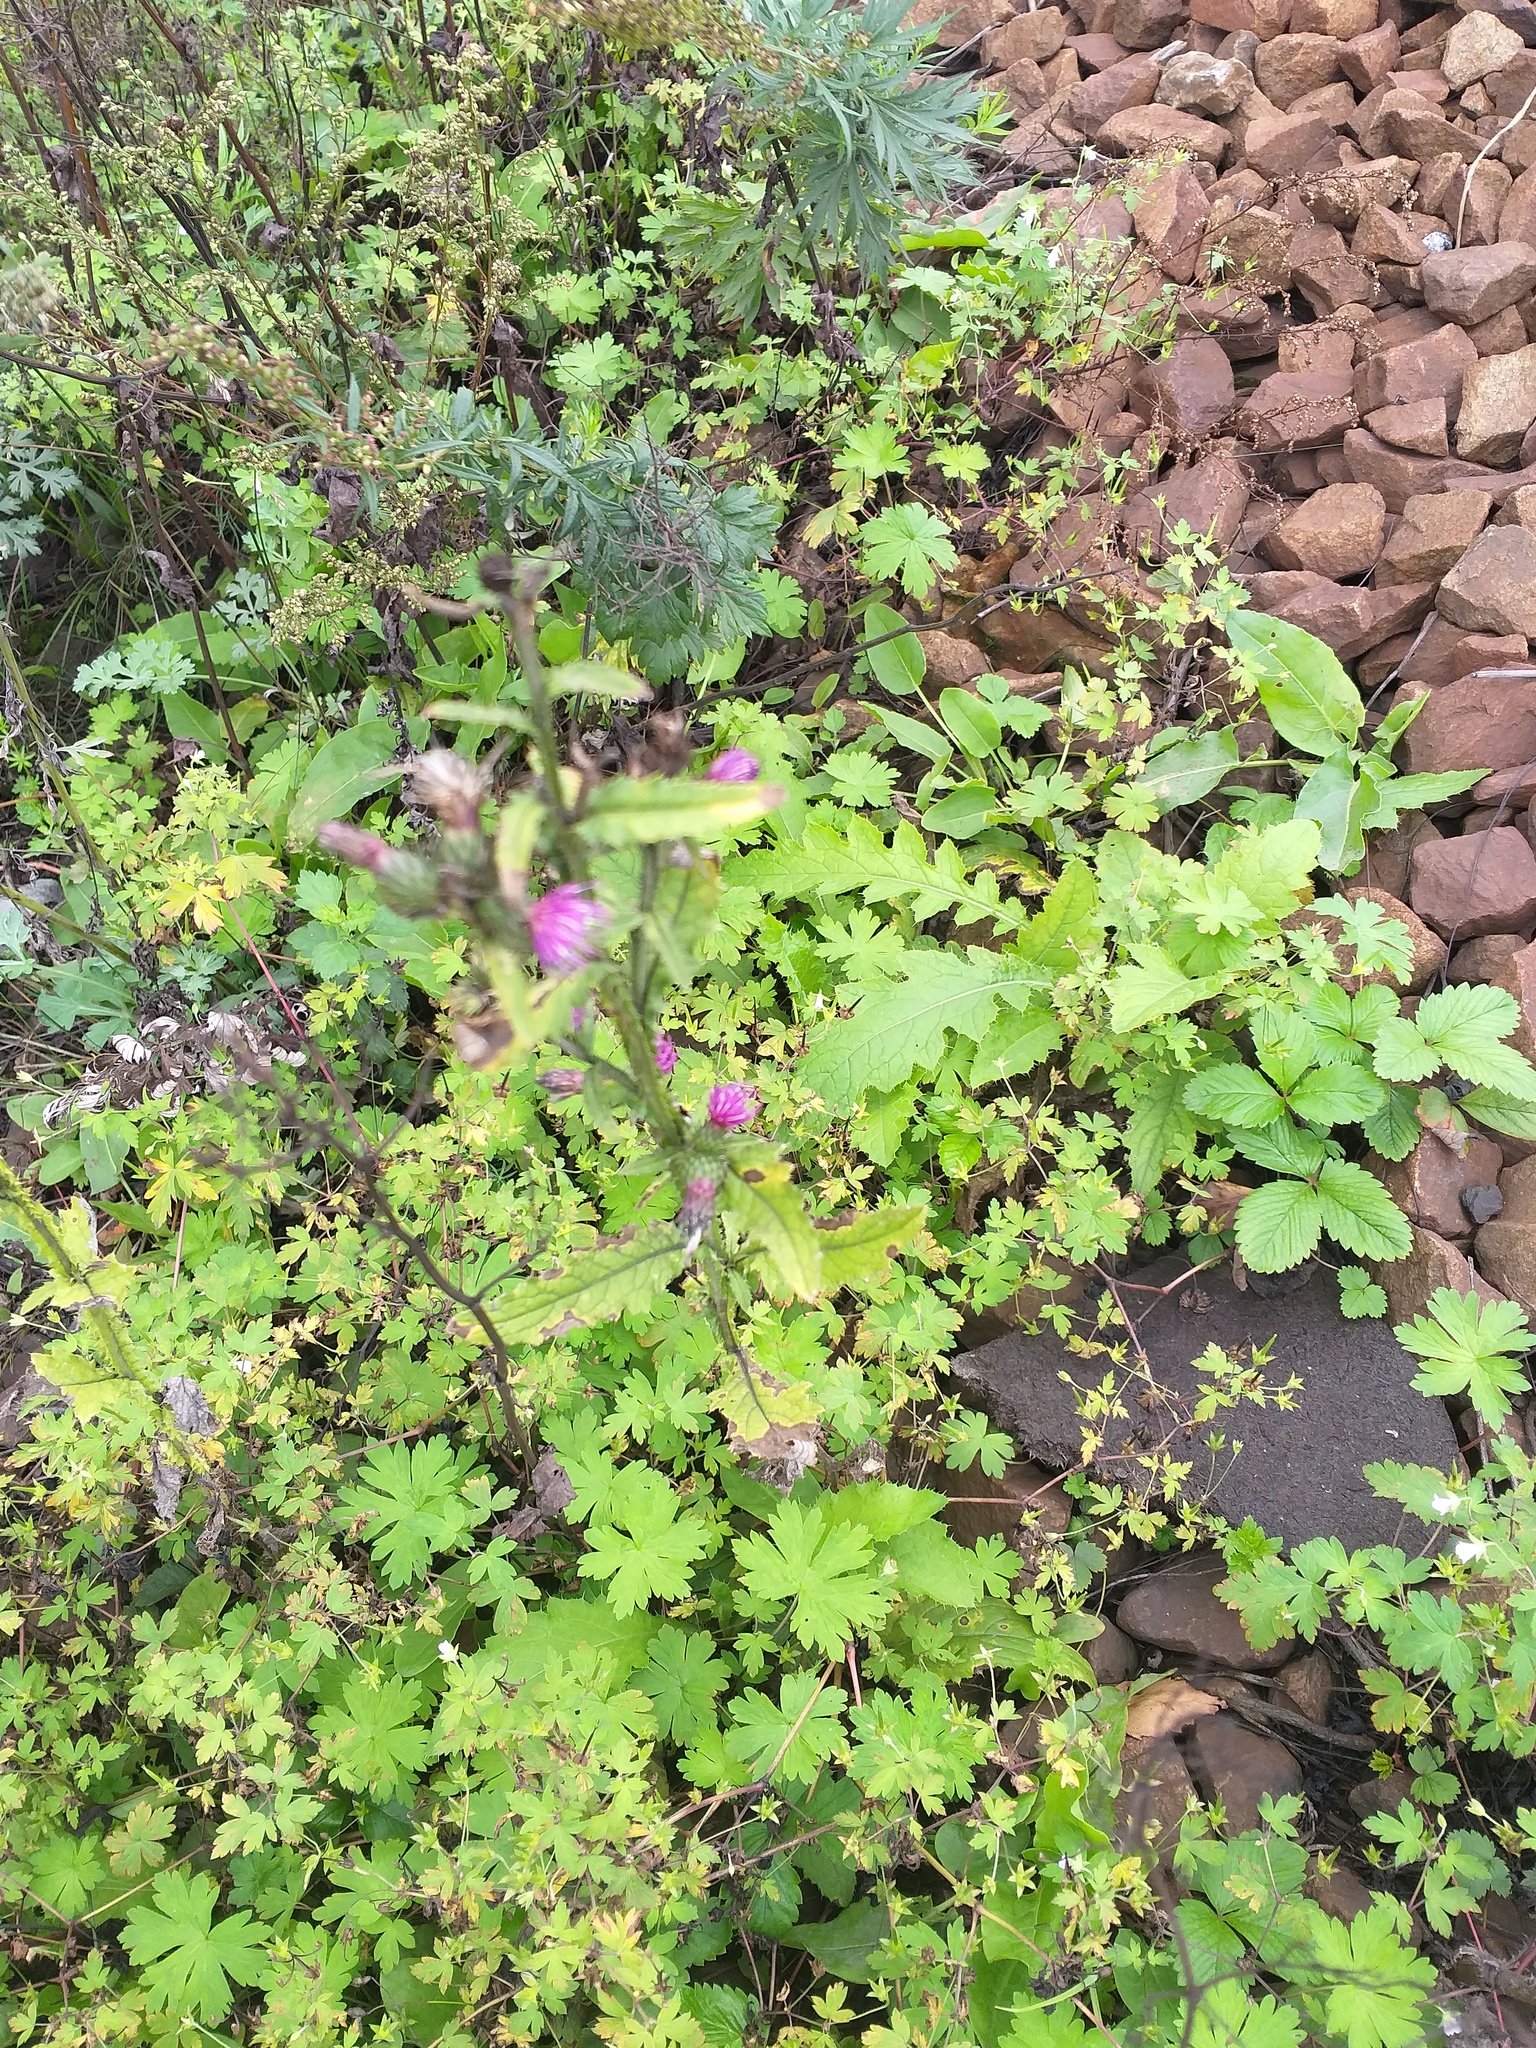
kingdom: Plantae
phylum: Tracheophyta
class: Magnoliopsida
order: Asterales
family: Asteraceae
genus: Carduus
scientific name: Carduus crispus
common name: Welted thistle
